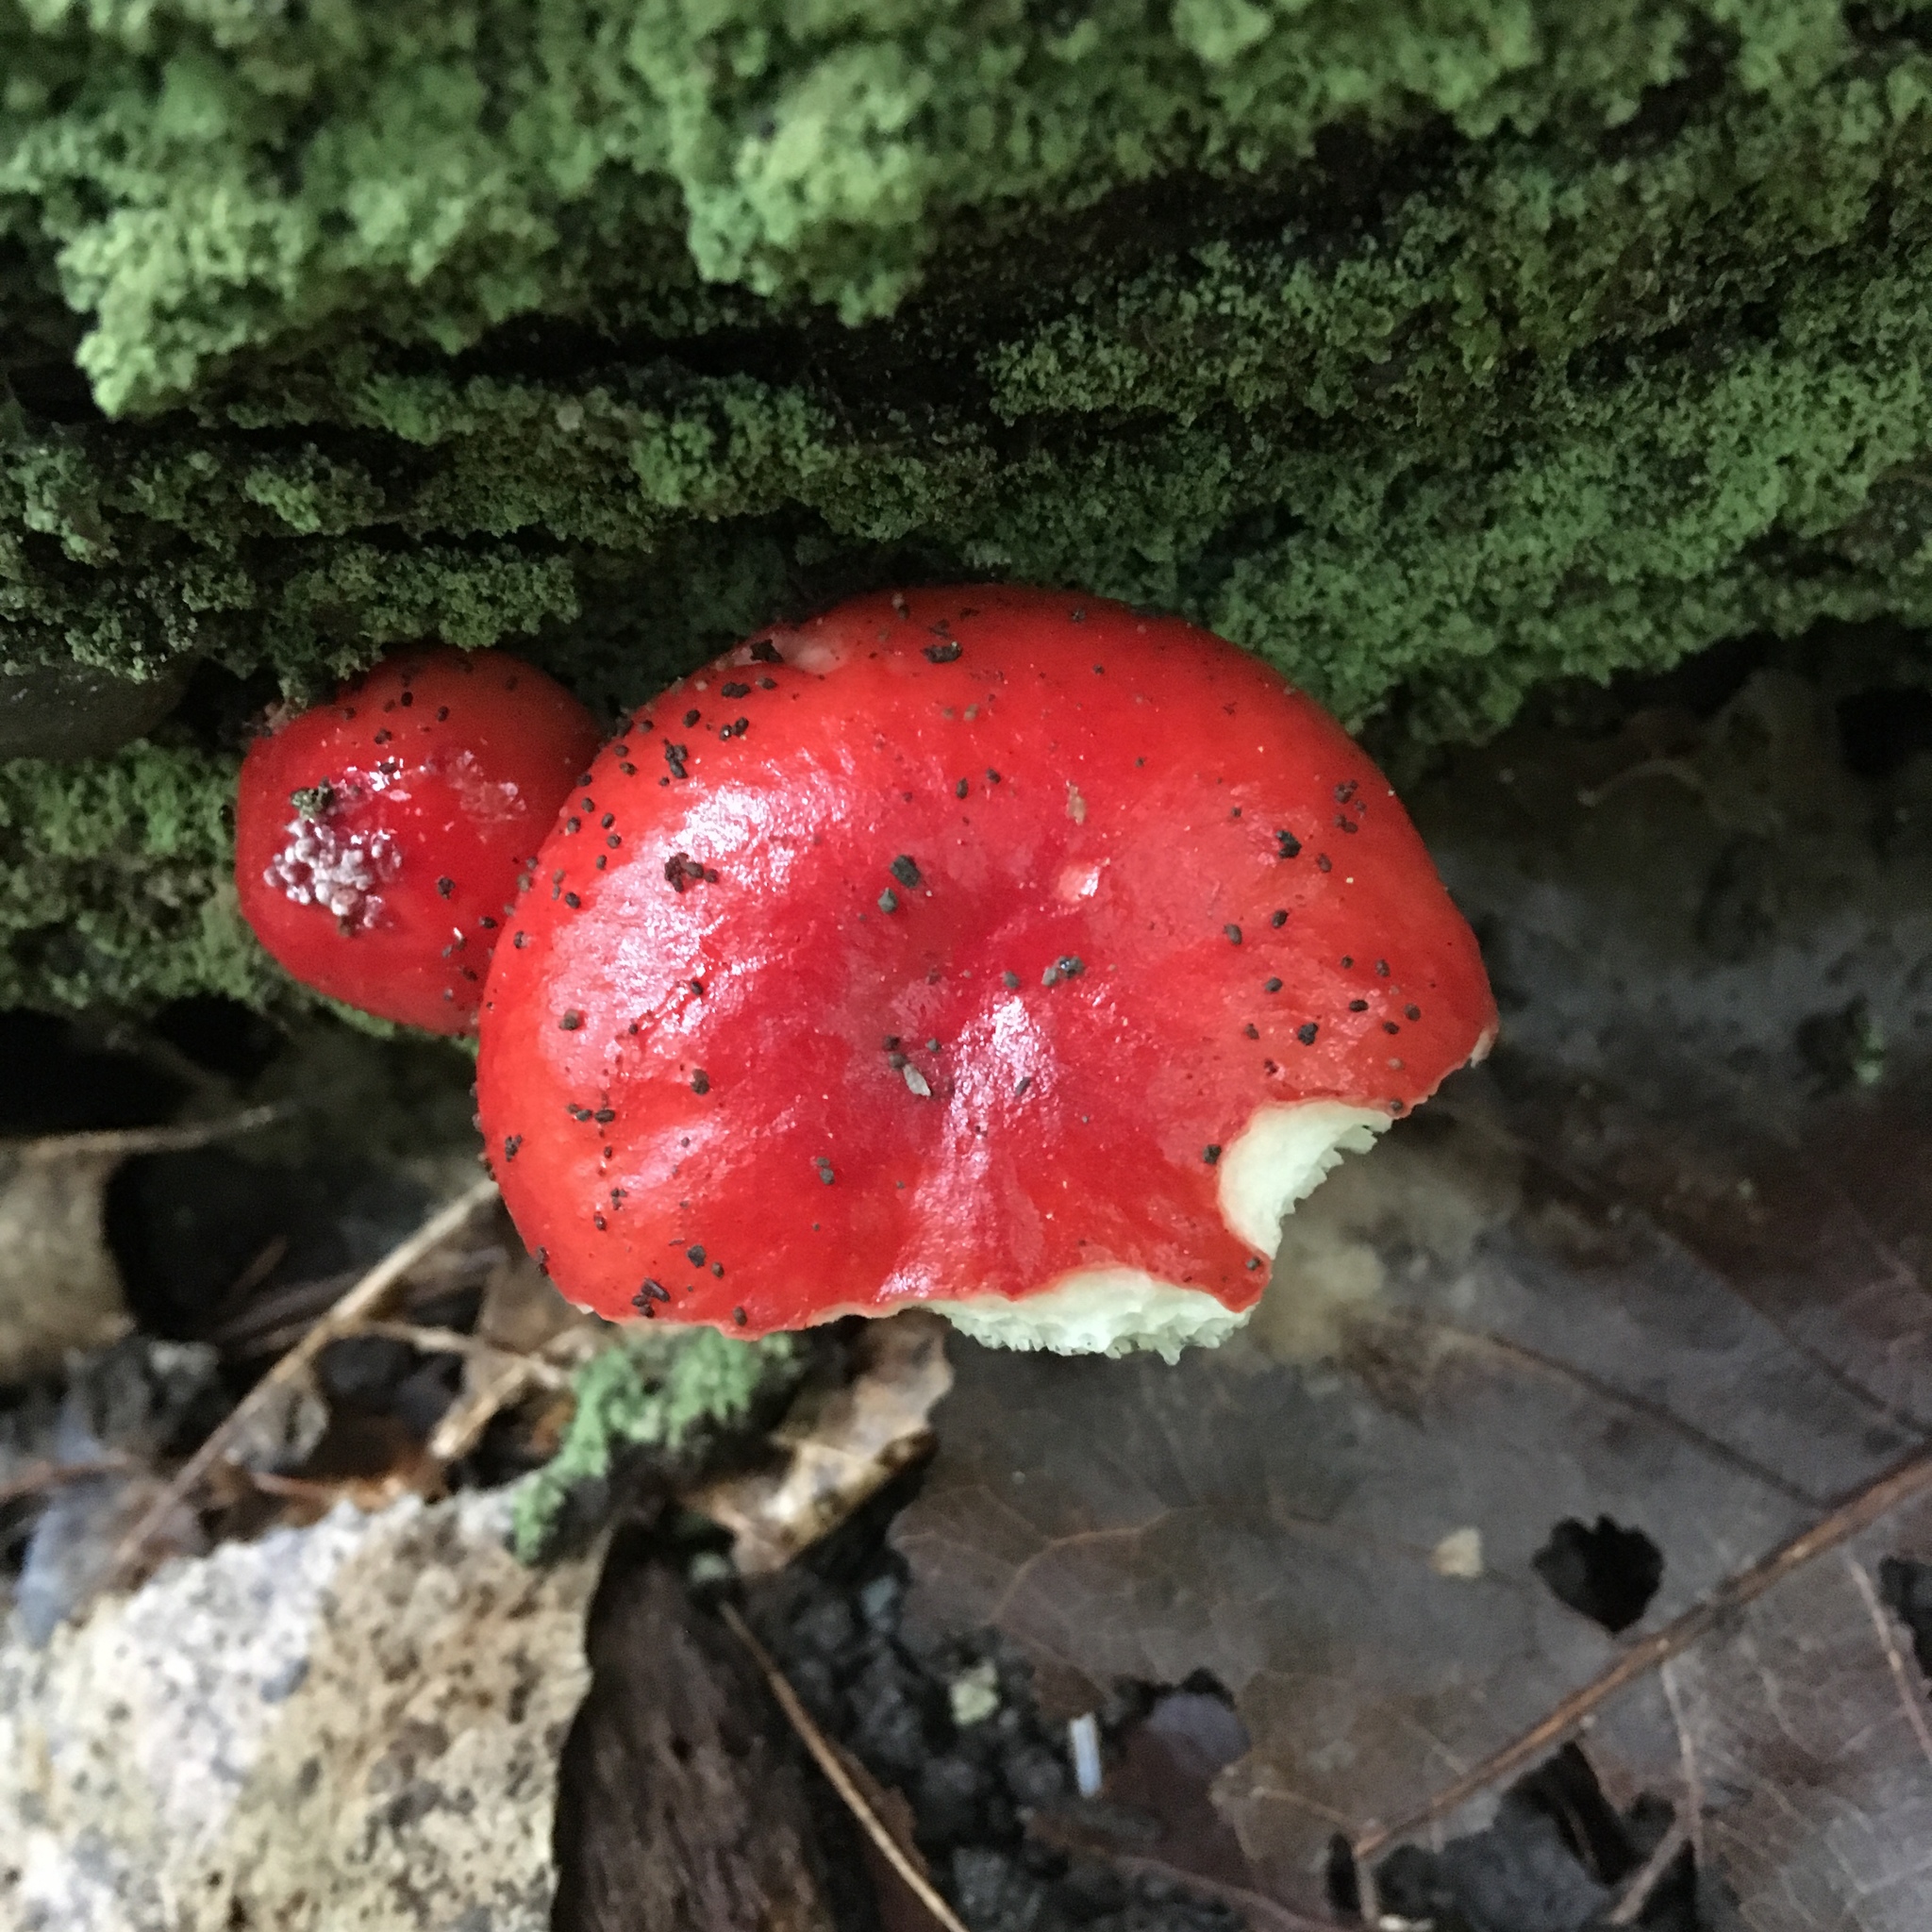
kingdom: Fungi
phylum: Basidiomycota
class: Agaricomycetes
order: Russulales
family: Russulaceae
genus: Russula
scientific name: Russula silvicola
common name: Emetic russula
